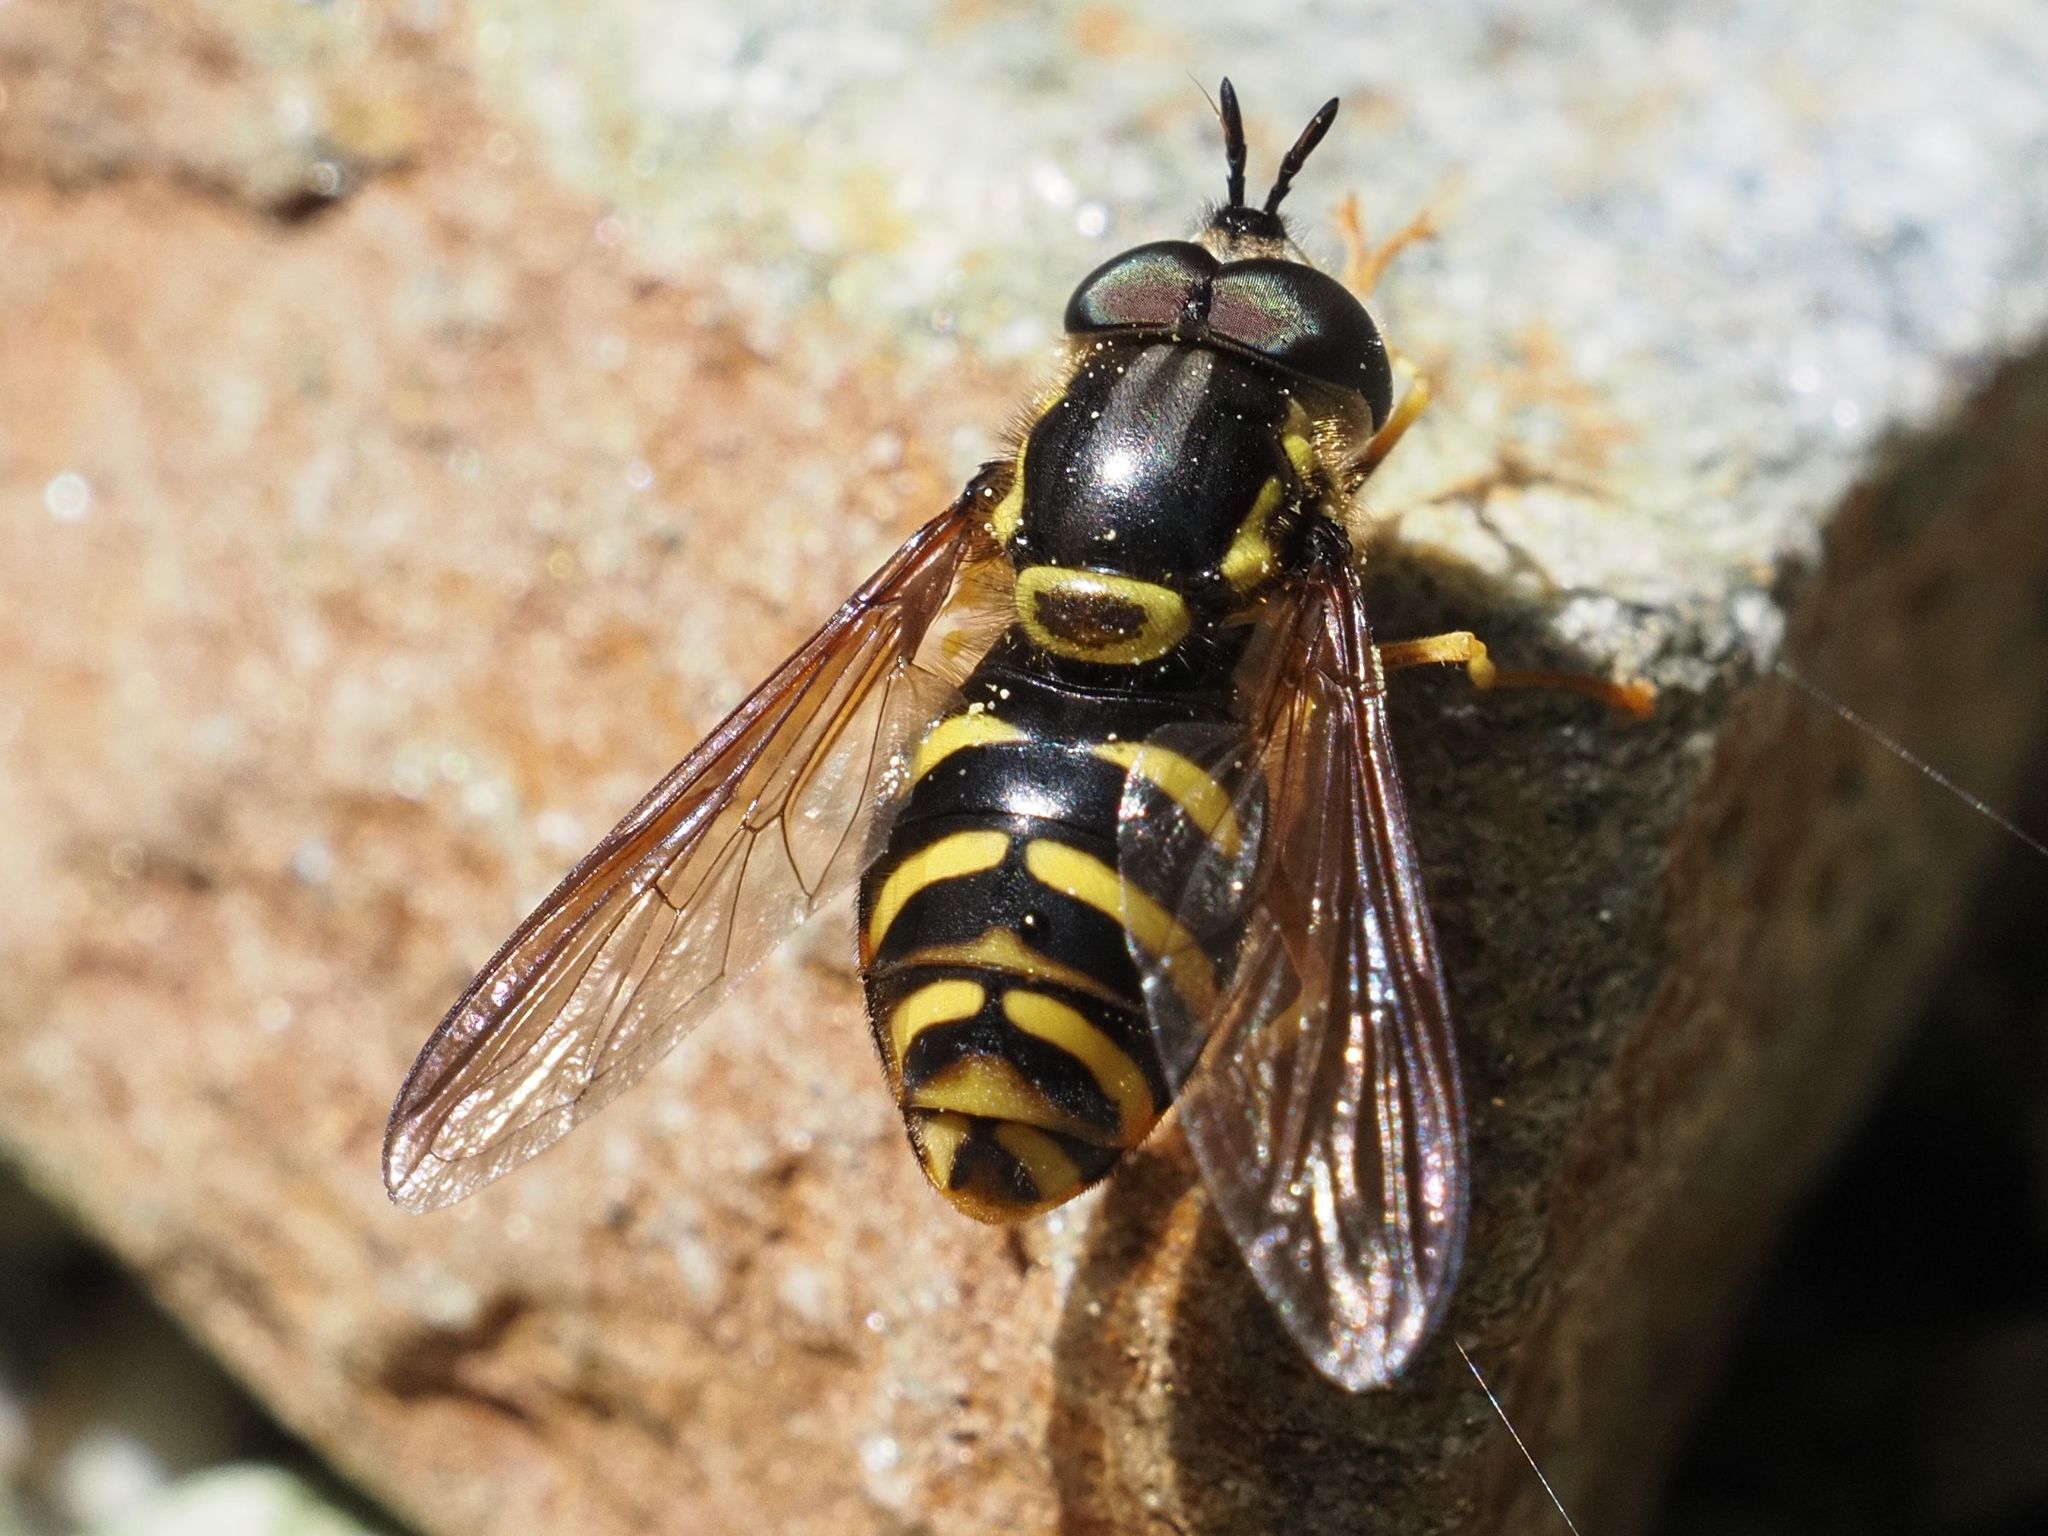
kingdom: Animalia
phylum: Arthropoda
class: Insecta
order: Diptera
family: Syrphidae
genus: Chrysotoxum
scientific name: Chrysotoxum intermedium
